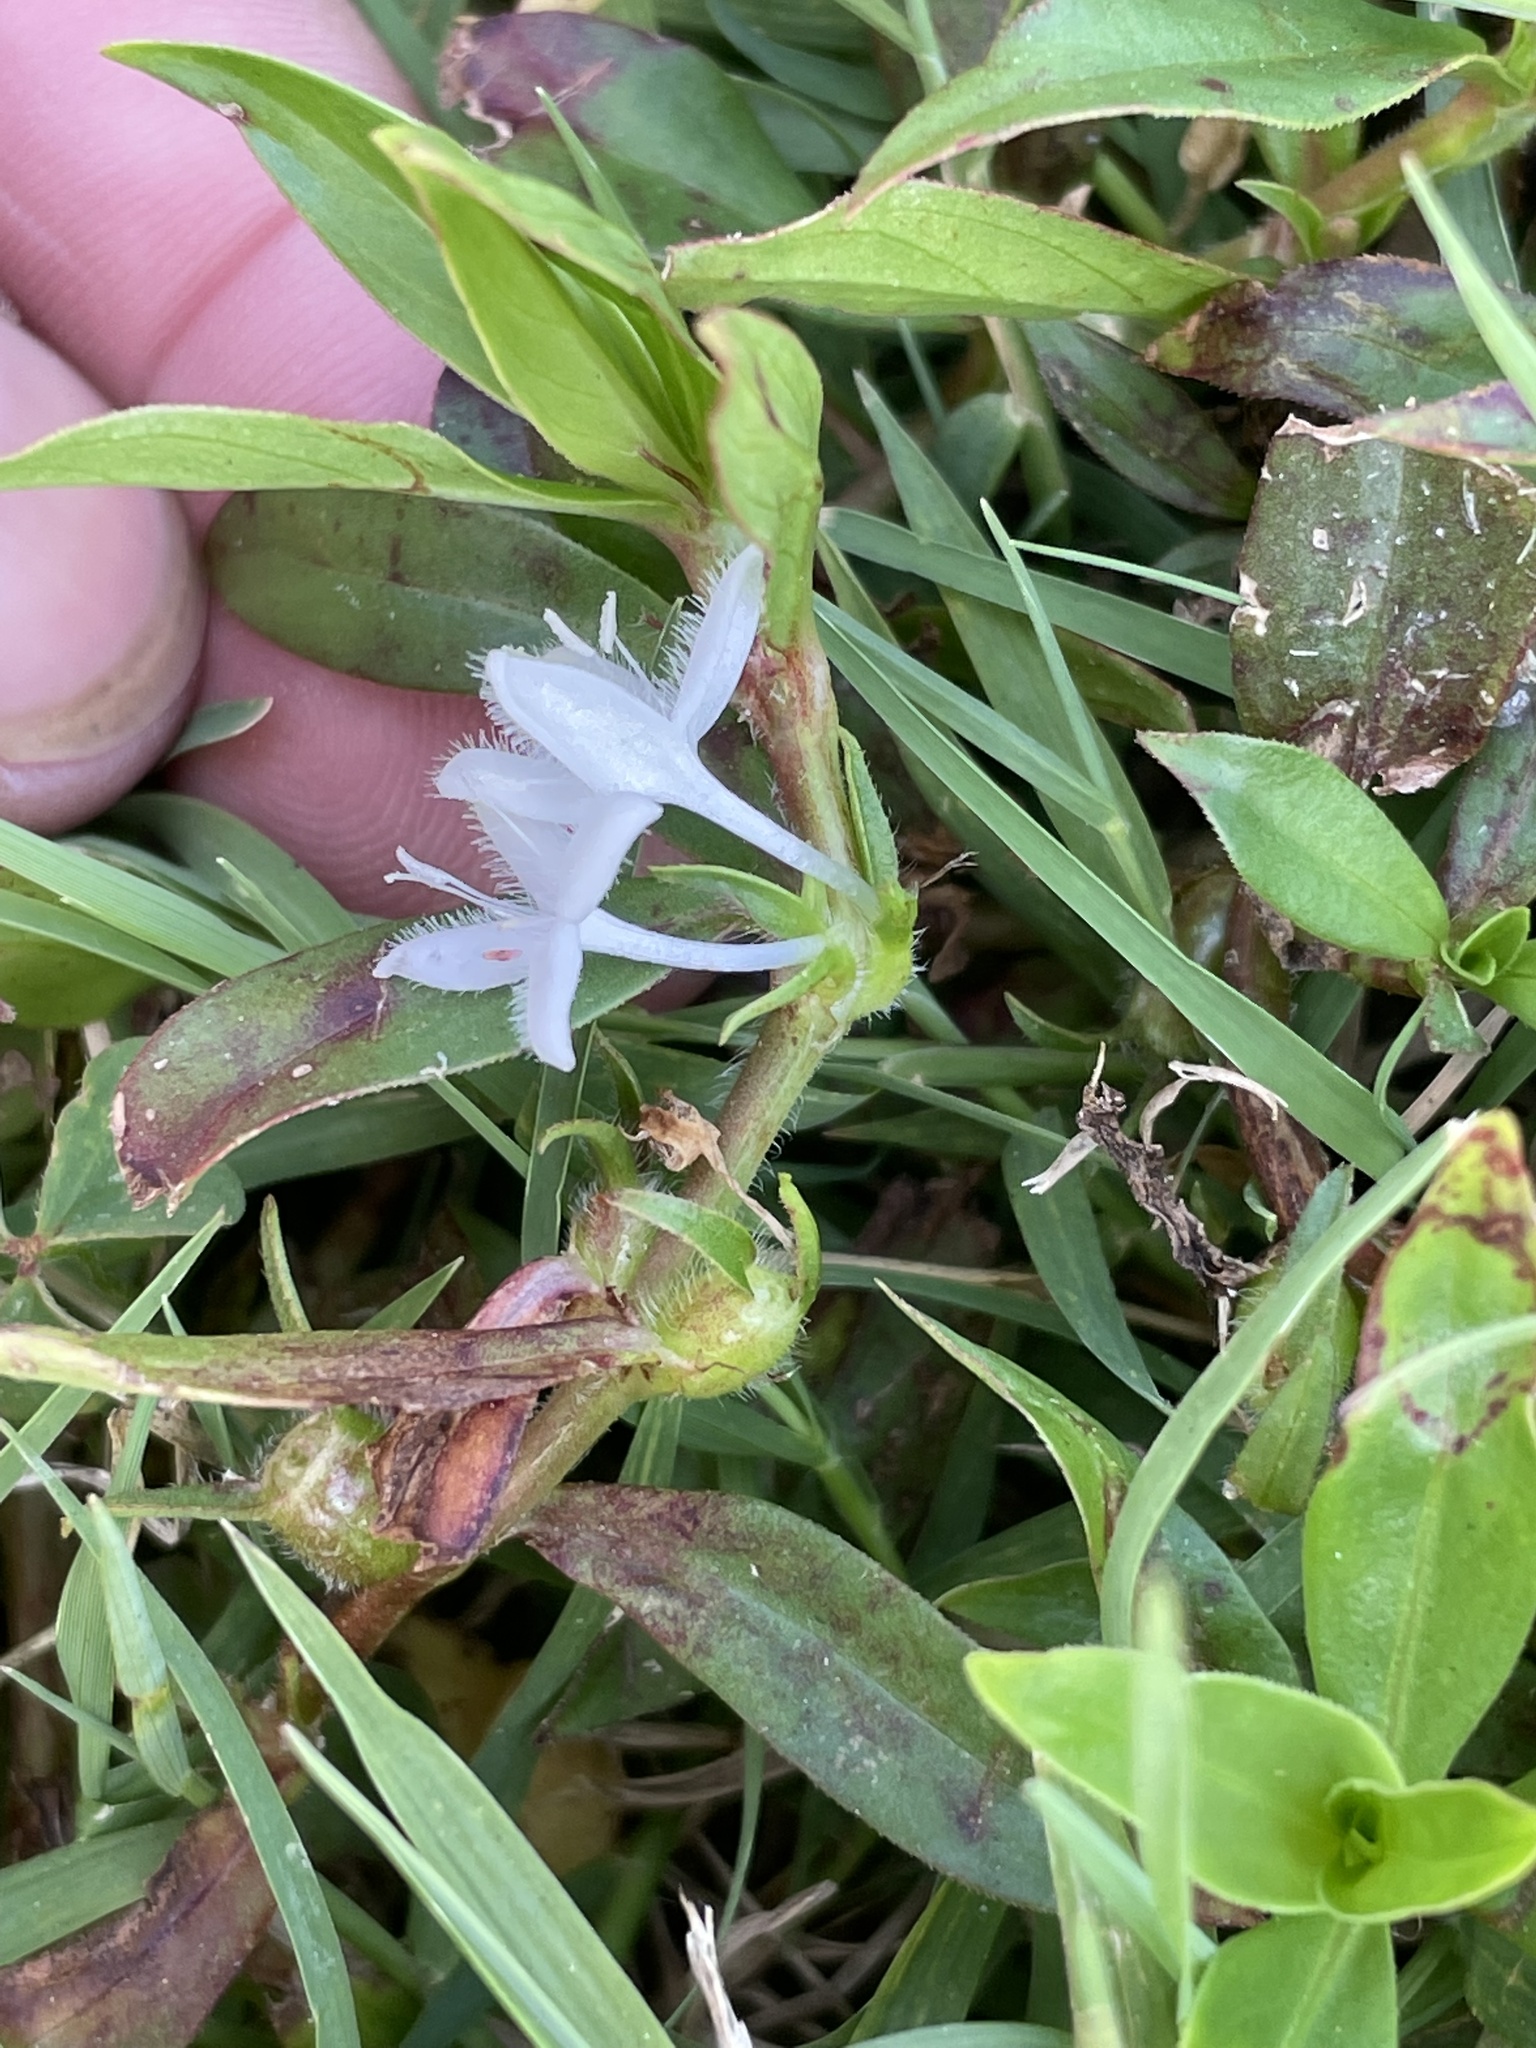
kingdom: Plantae
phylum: Tracheophyta
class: Magnoliopsida
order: Gentianales
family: Rubiaceae
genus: Diodia
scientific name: Diodia virginiana
